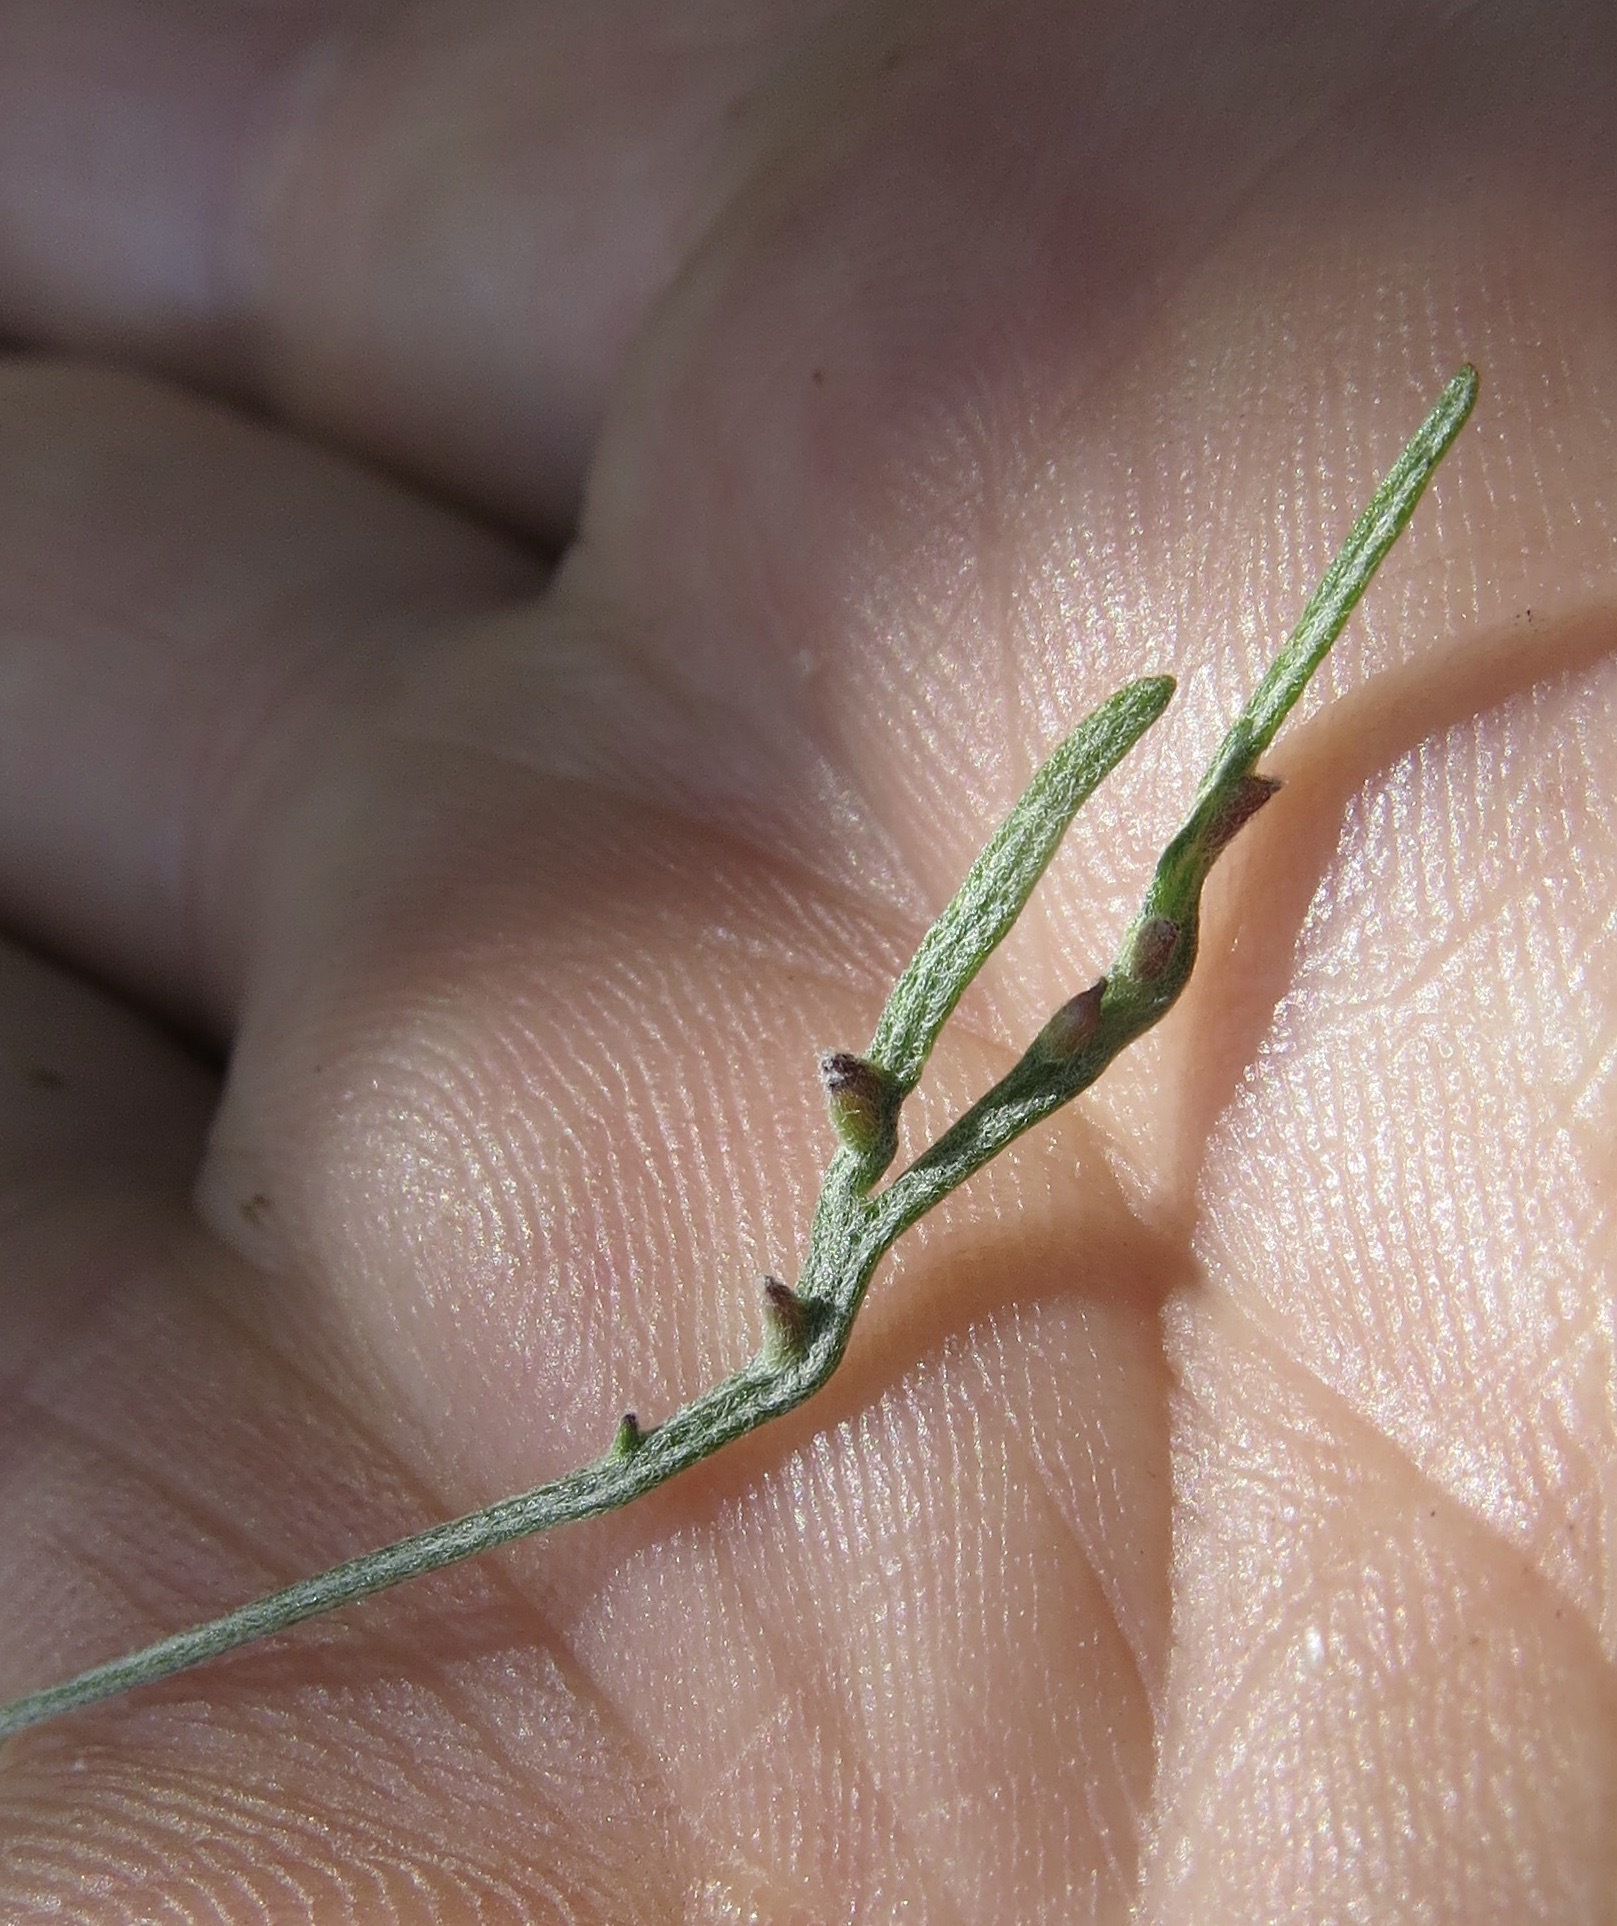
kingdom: Animalia
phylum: Arthropoda
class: Insecta
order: Diptera
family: Cecidomyiidae
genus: Rhopalomyia
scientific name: Rhopalomyia clinata
